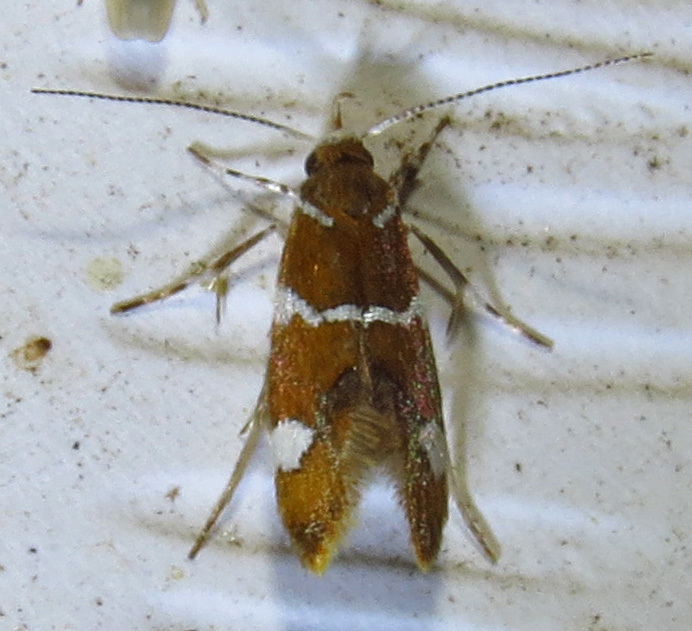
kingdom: Animalia
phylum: Arthropoda
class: Insecta
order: Lepidoptera
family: Oecophoridae
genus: Promalactis
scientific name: Promalactis suzukiella
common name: Moth
